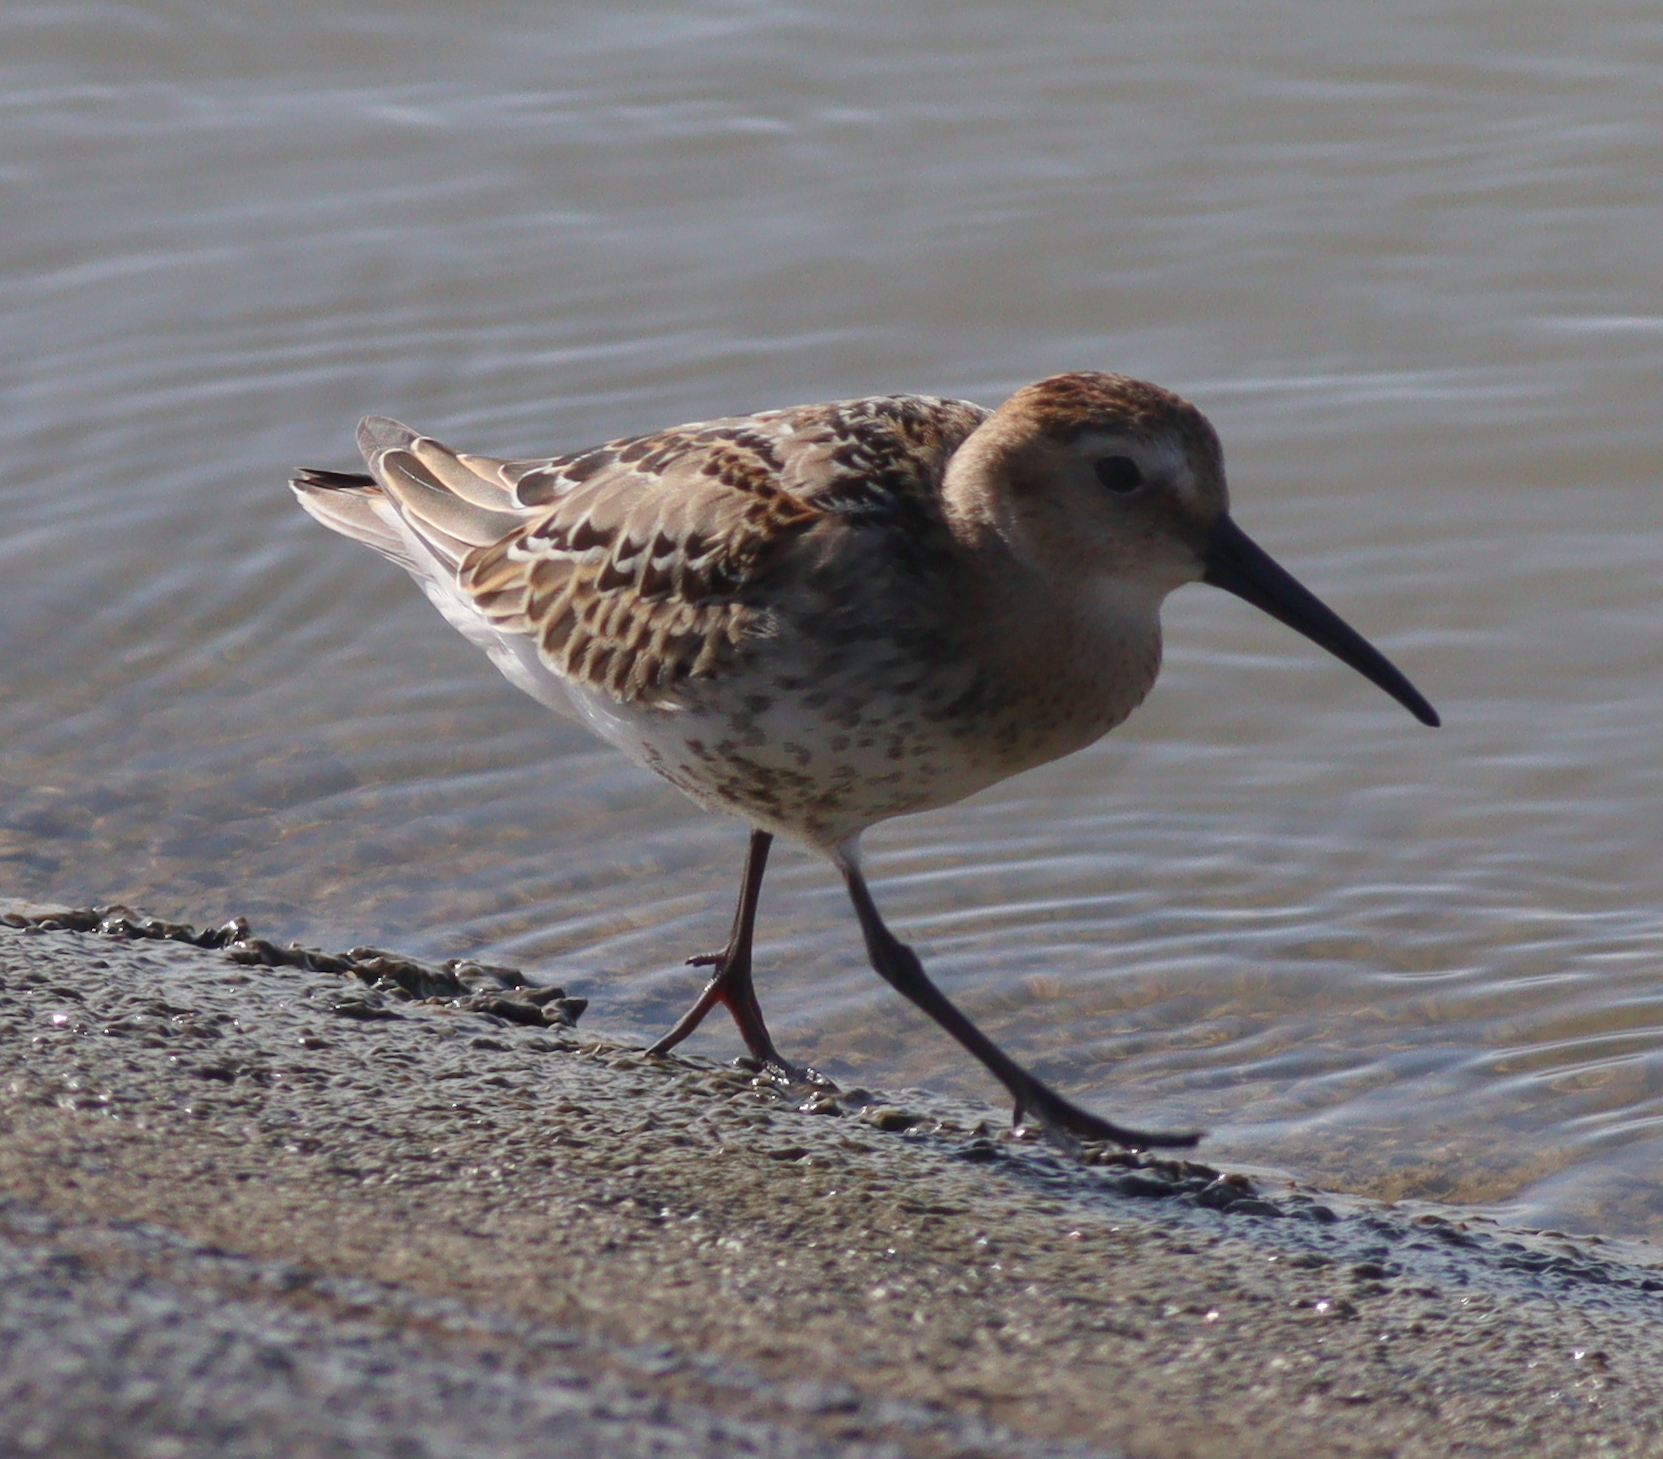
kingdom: Animalia
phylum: Chordata
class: Aves
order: Charadriiformes
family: Scolopacidae
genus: Calidris
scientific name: Calidris alpina
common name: Dunlin
